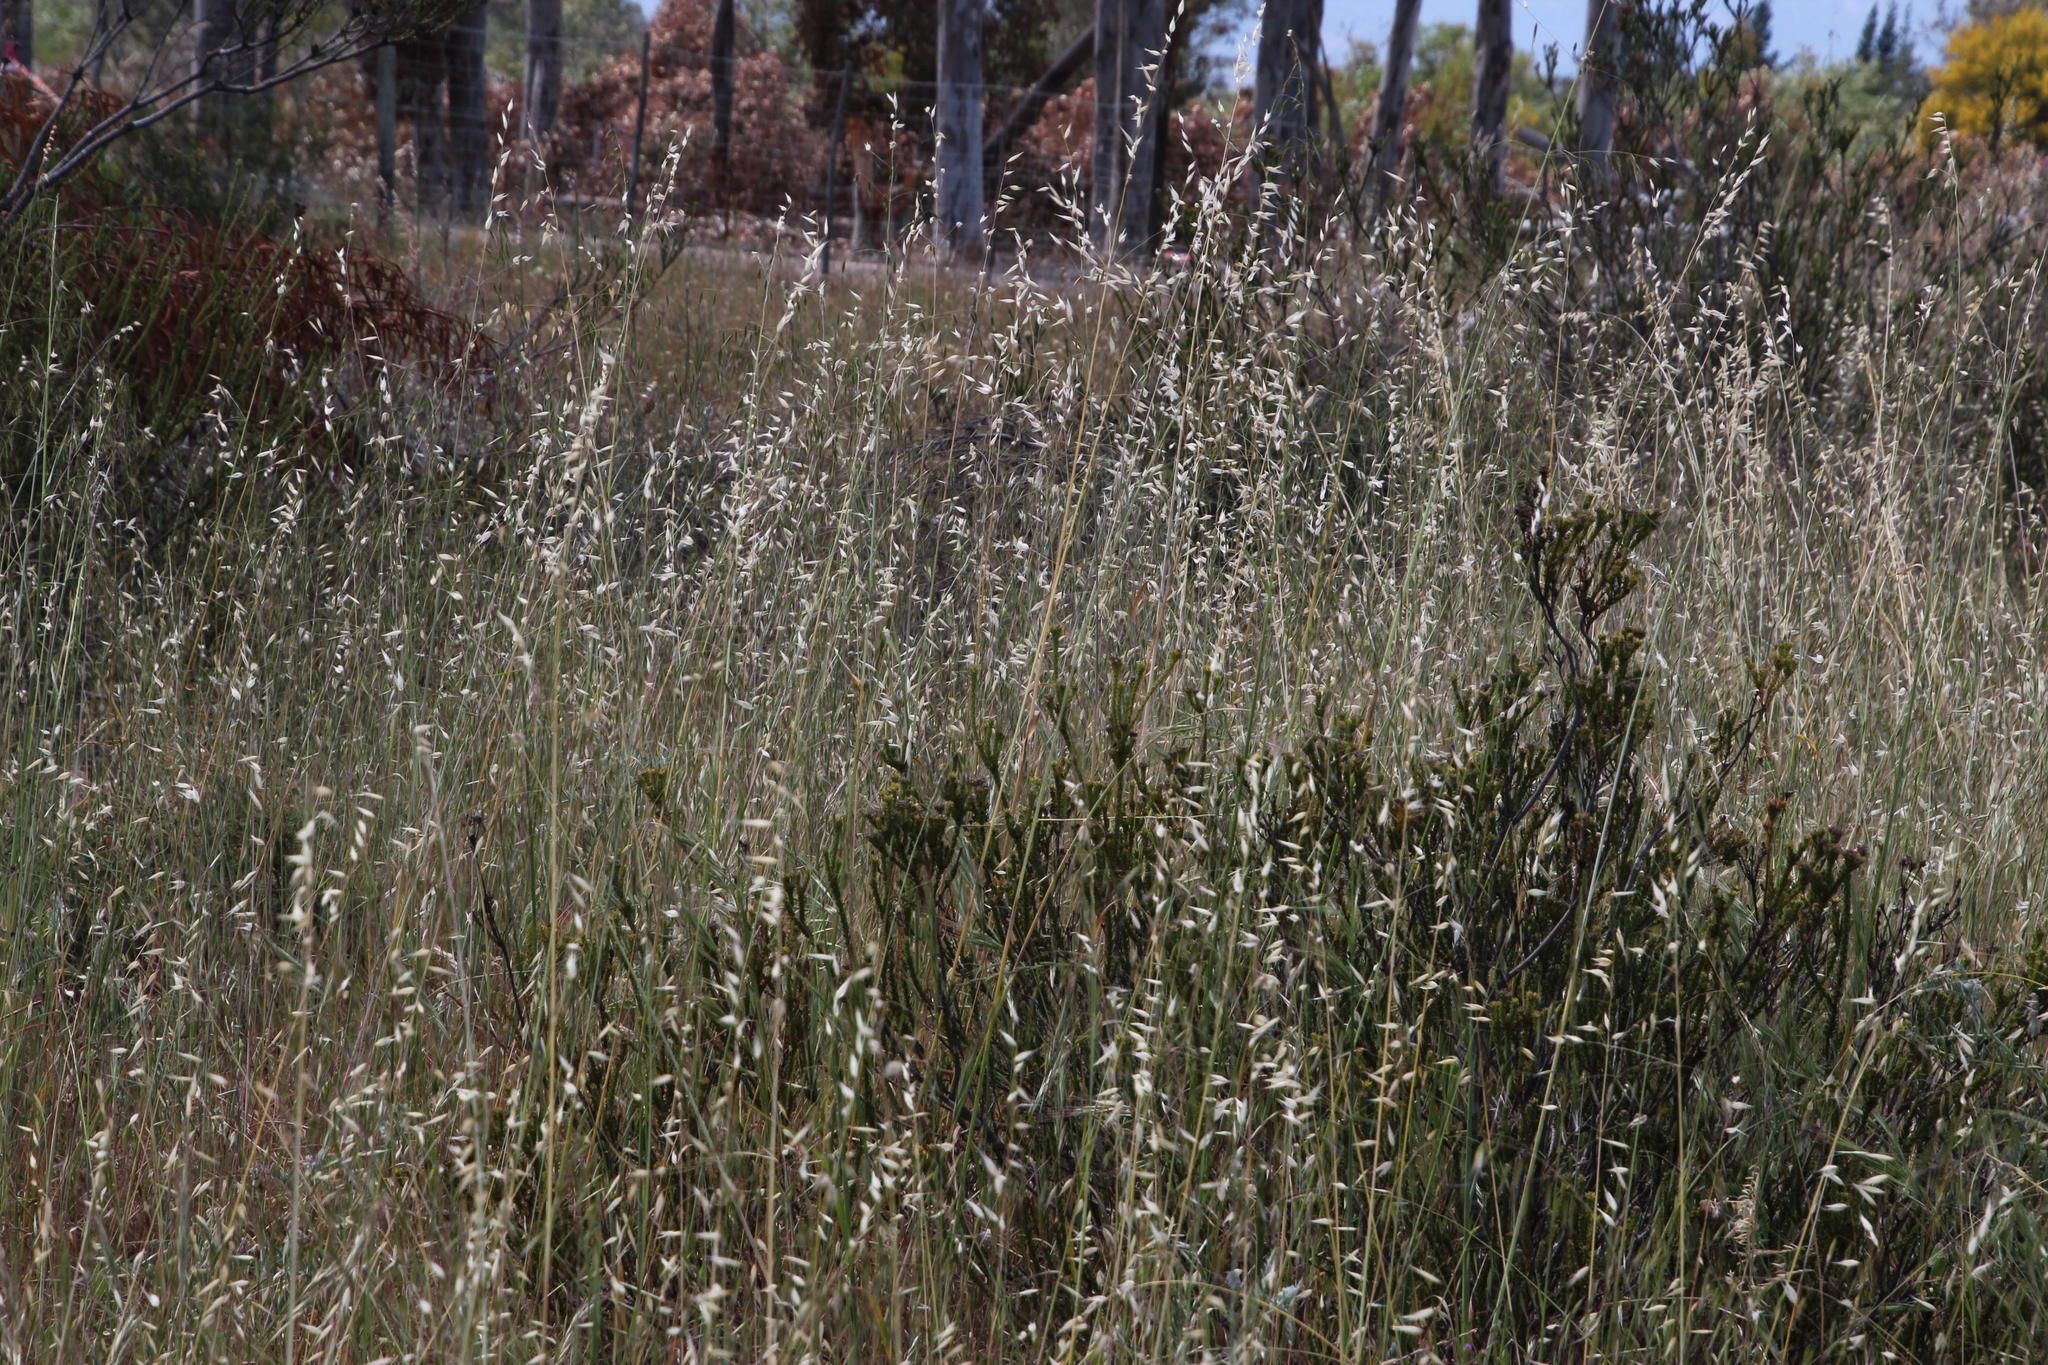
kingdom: Plantae
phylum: Tracheophyta
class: Liliopsida
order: Poales
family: Poaceae
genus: Avena
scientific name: Avena fatua
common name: Wild oat
